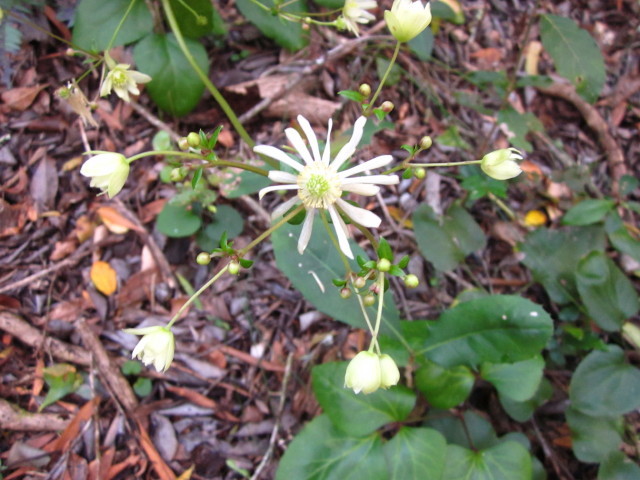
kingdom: Plantae
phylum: Tracheophyta
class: Magnoliopsida
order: Ranunculales
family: Ranunculaceae
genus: Knowltonia
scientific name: Knowltonia vesicatoria
